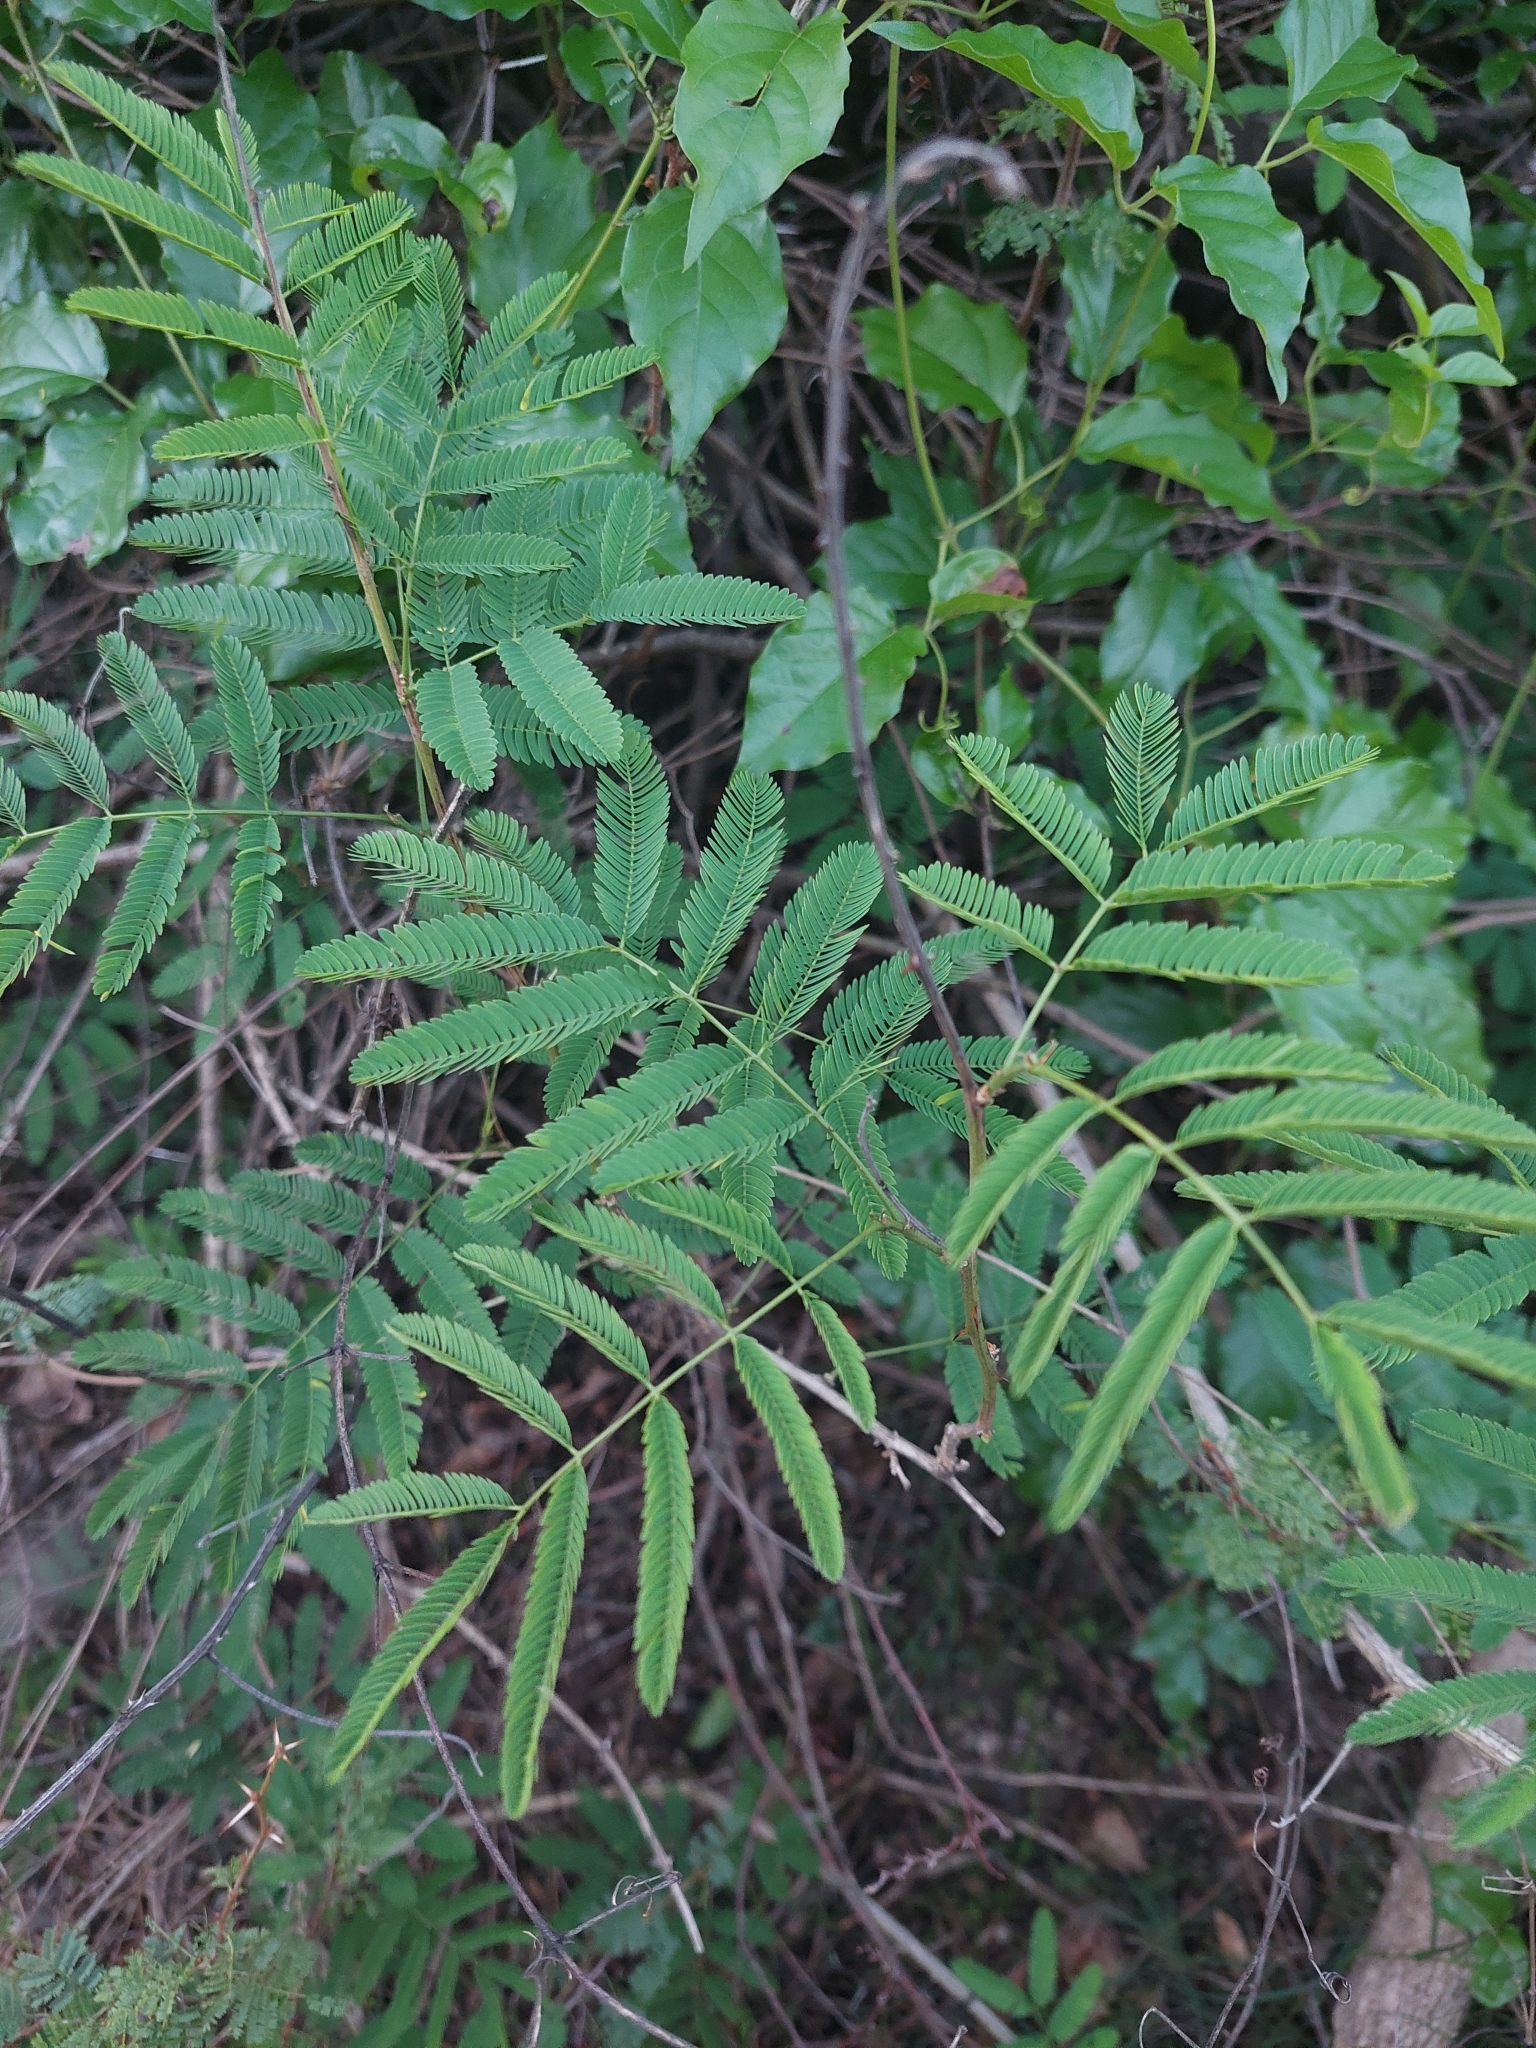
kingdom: Plantae
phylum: Tracheophyta
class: Magnoliopsida
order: Fabales
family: Fabaceae
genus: Senegalia
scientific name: Senegalia bonariensis
